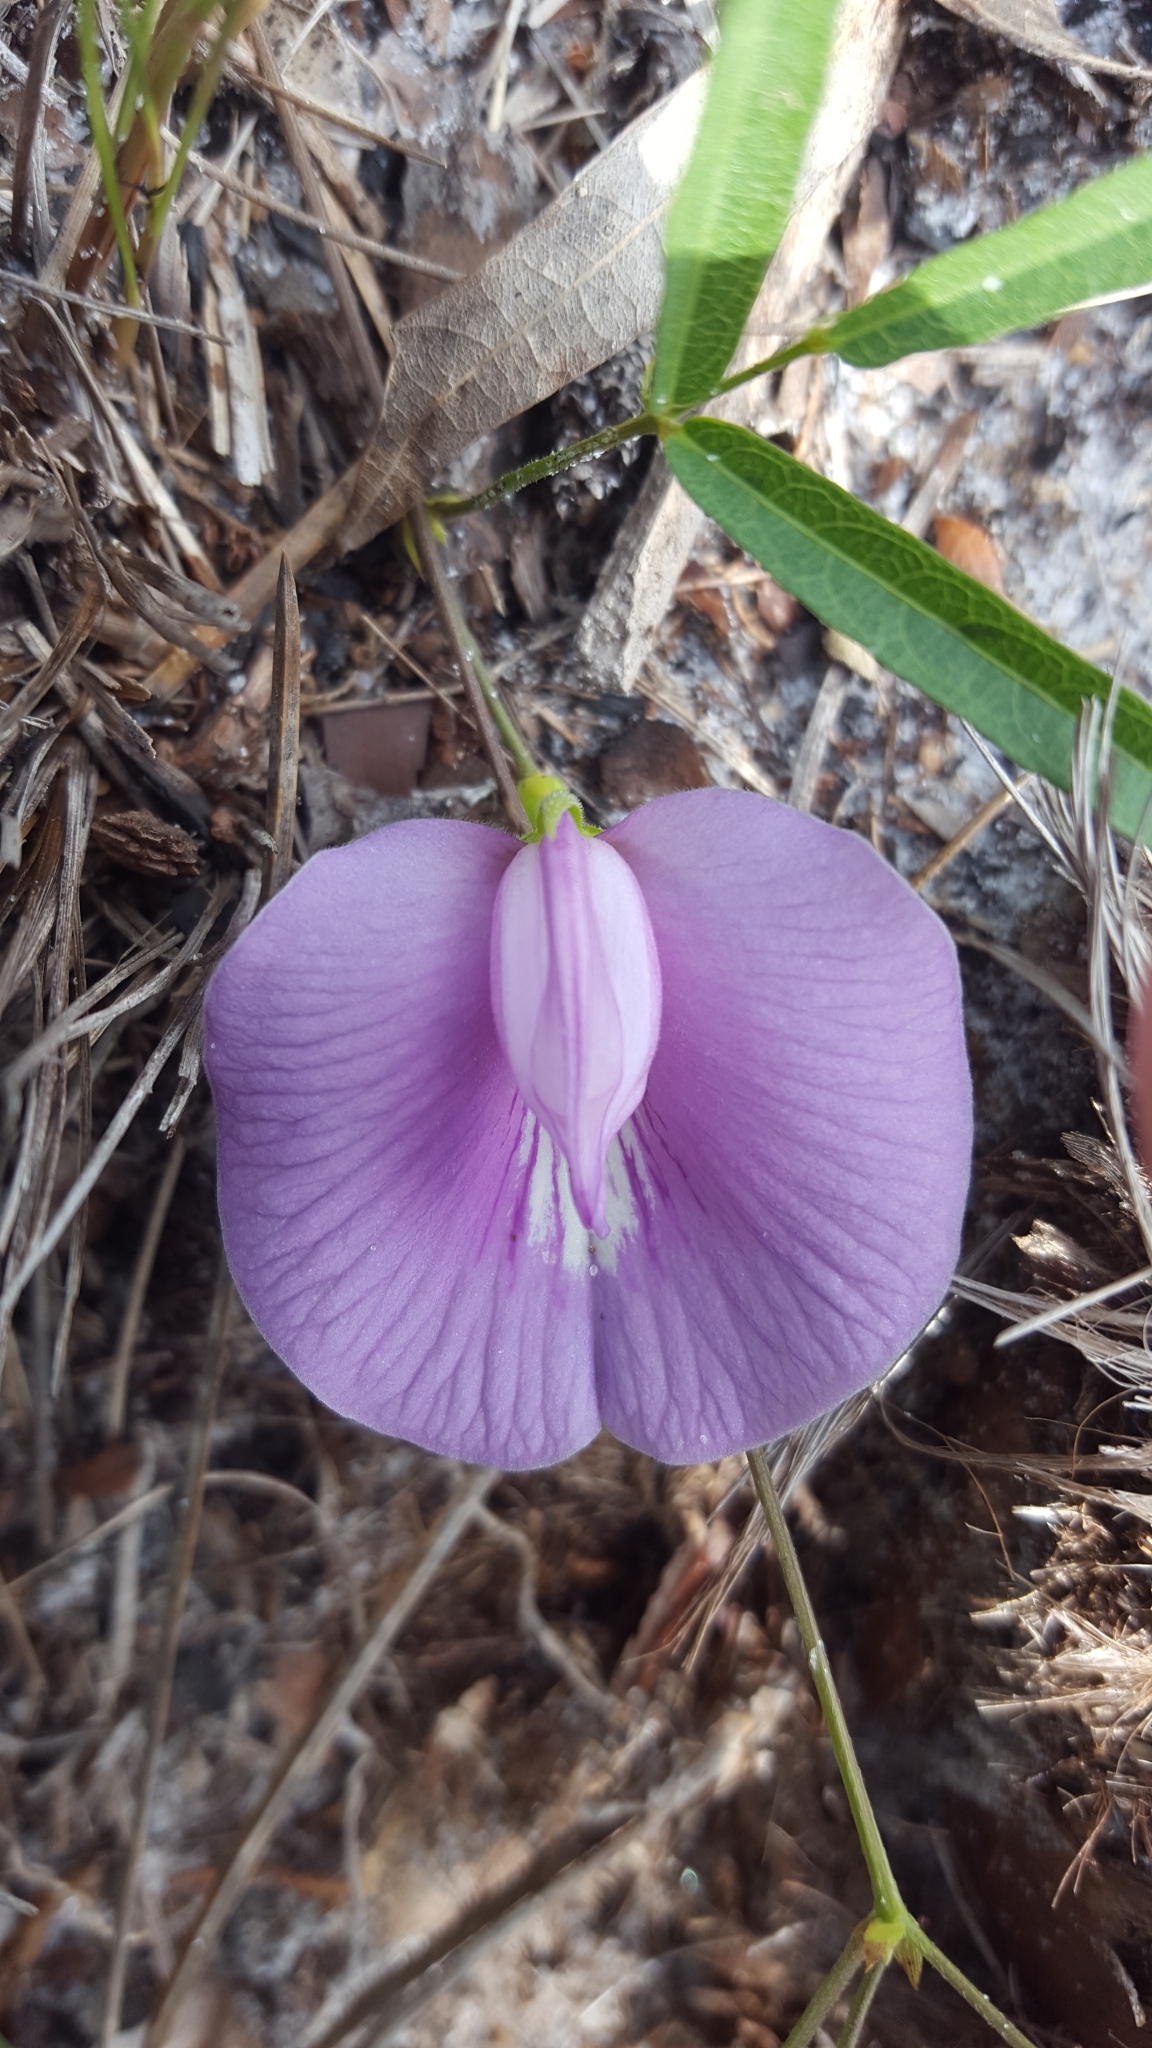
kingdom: Plantae
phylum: Tracheophyta
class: Magnoliopsida
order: Fabales
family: Fabaceae
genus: Centrosema
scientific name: Centrosema virginianum
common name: Butterfly-pea
